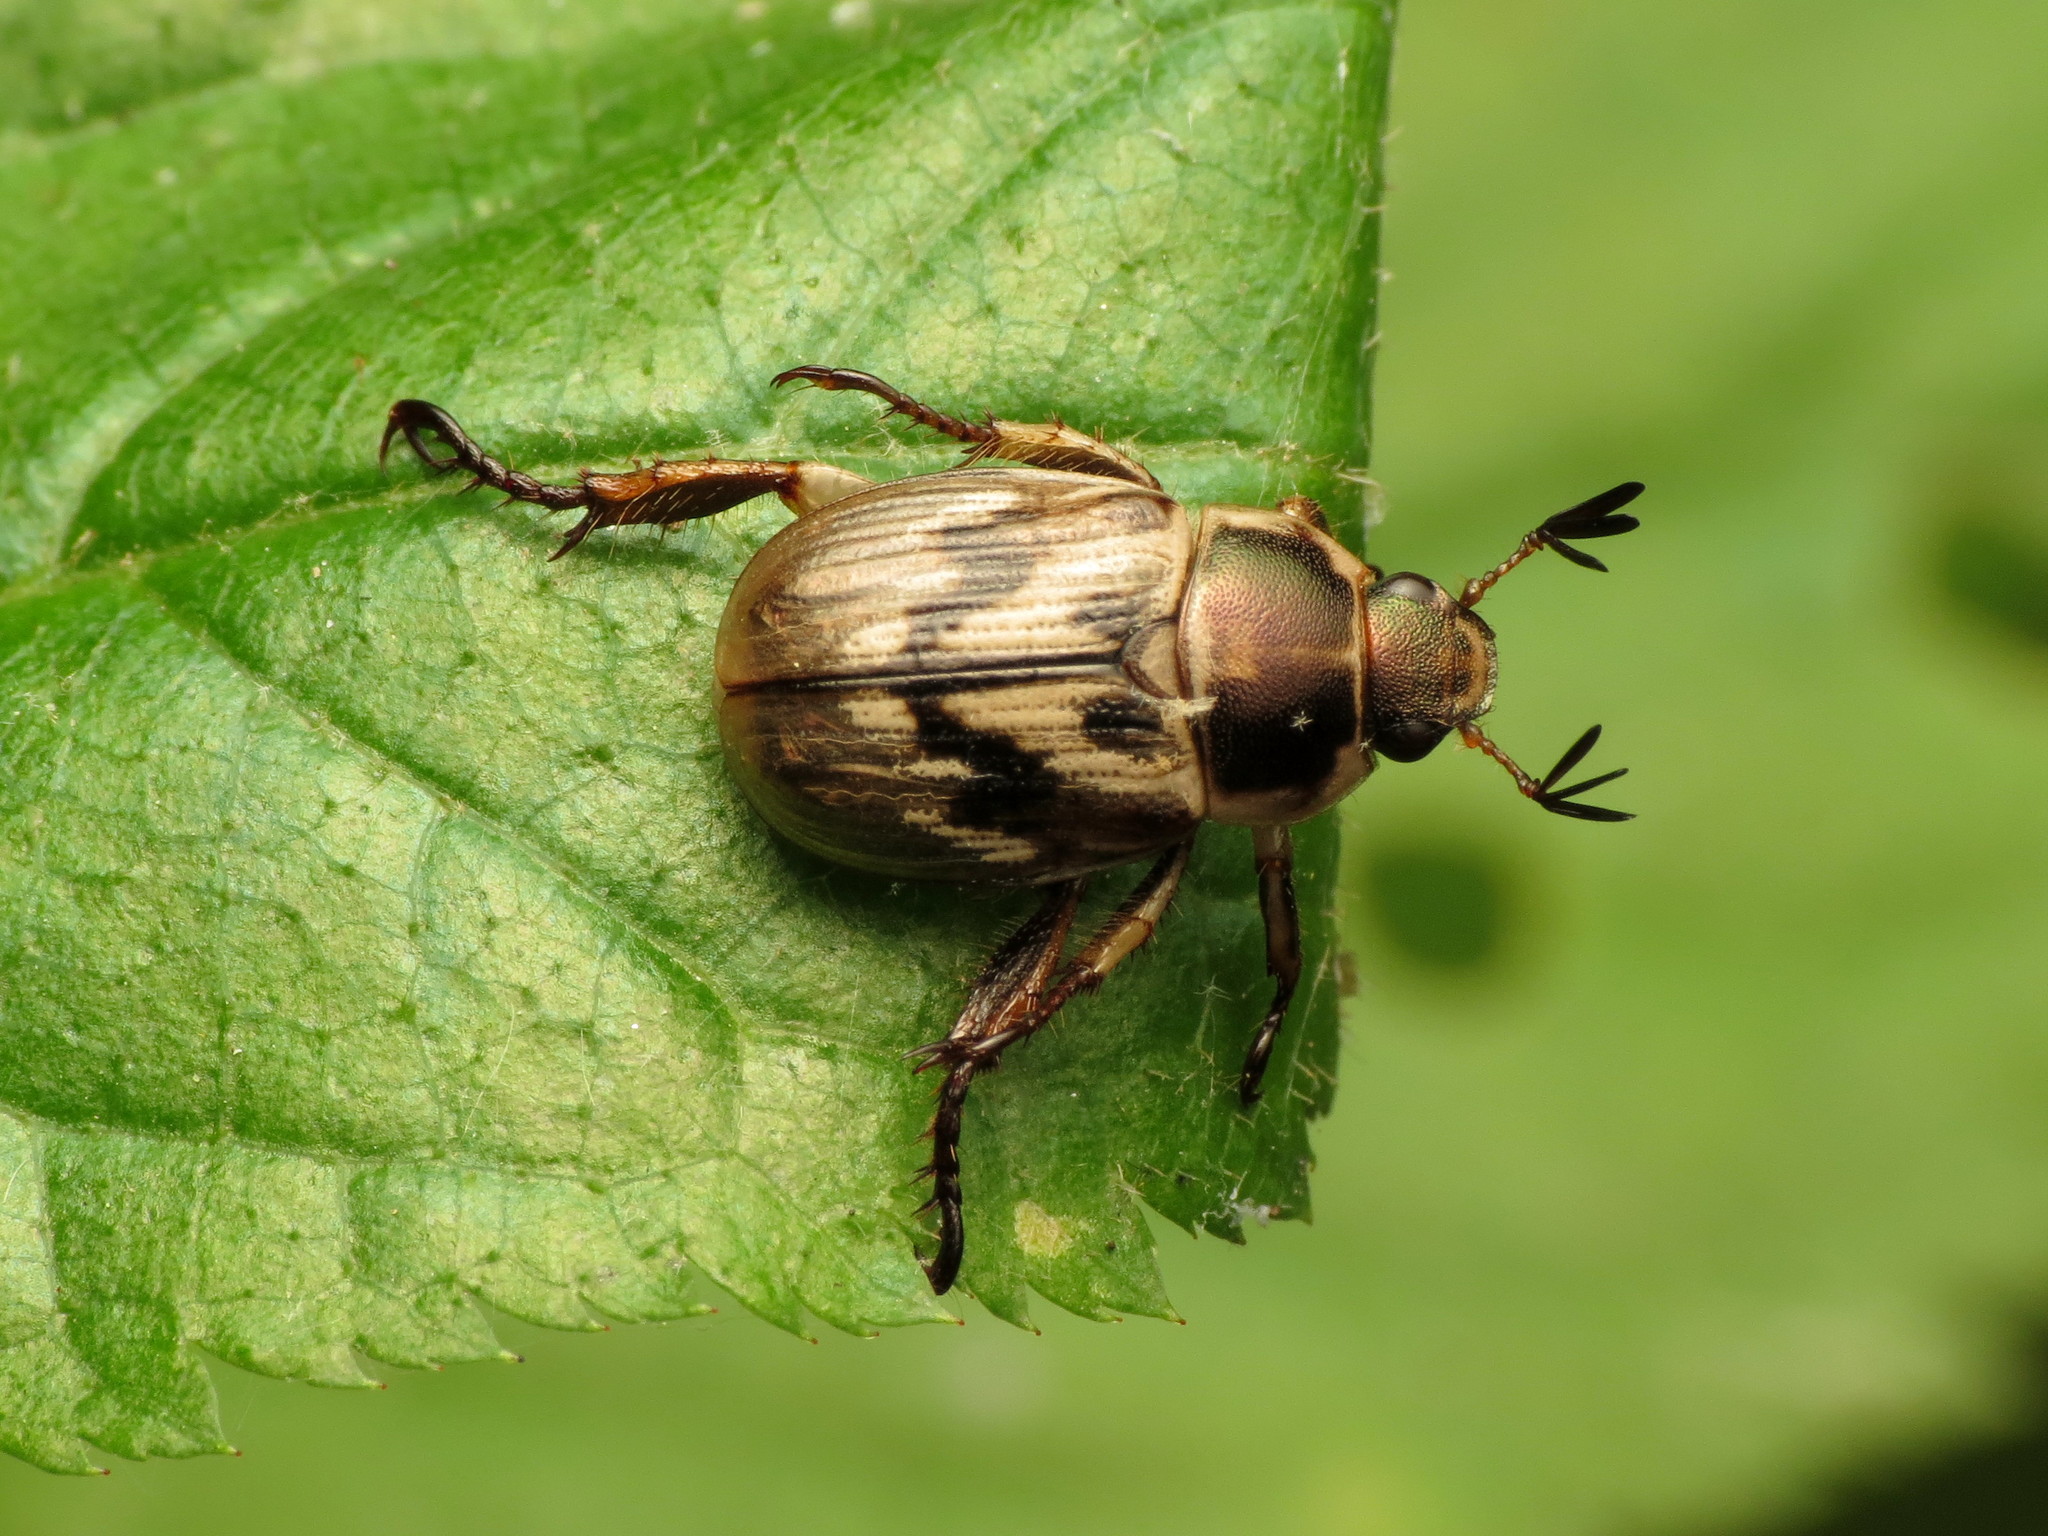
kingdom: Animalia
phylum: Arthropoda
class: Insecta
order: Coleoptera
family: Scarabaeidae
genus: Exomala
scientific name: Exomala orientalis
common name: Oriental beetle
